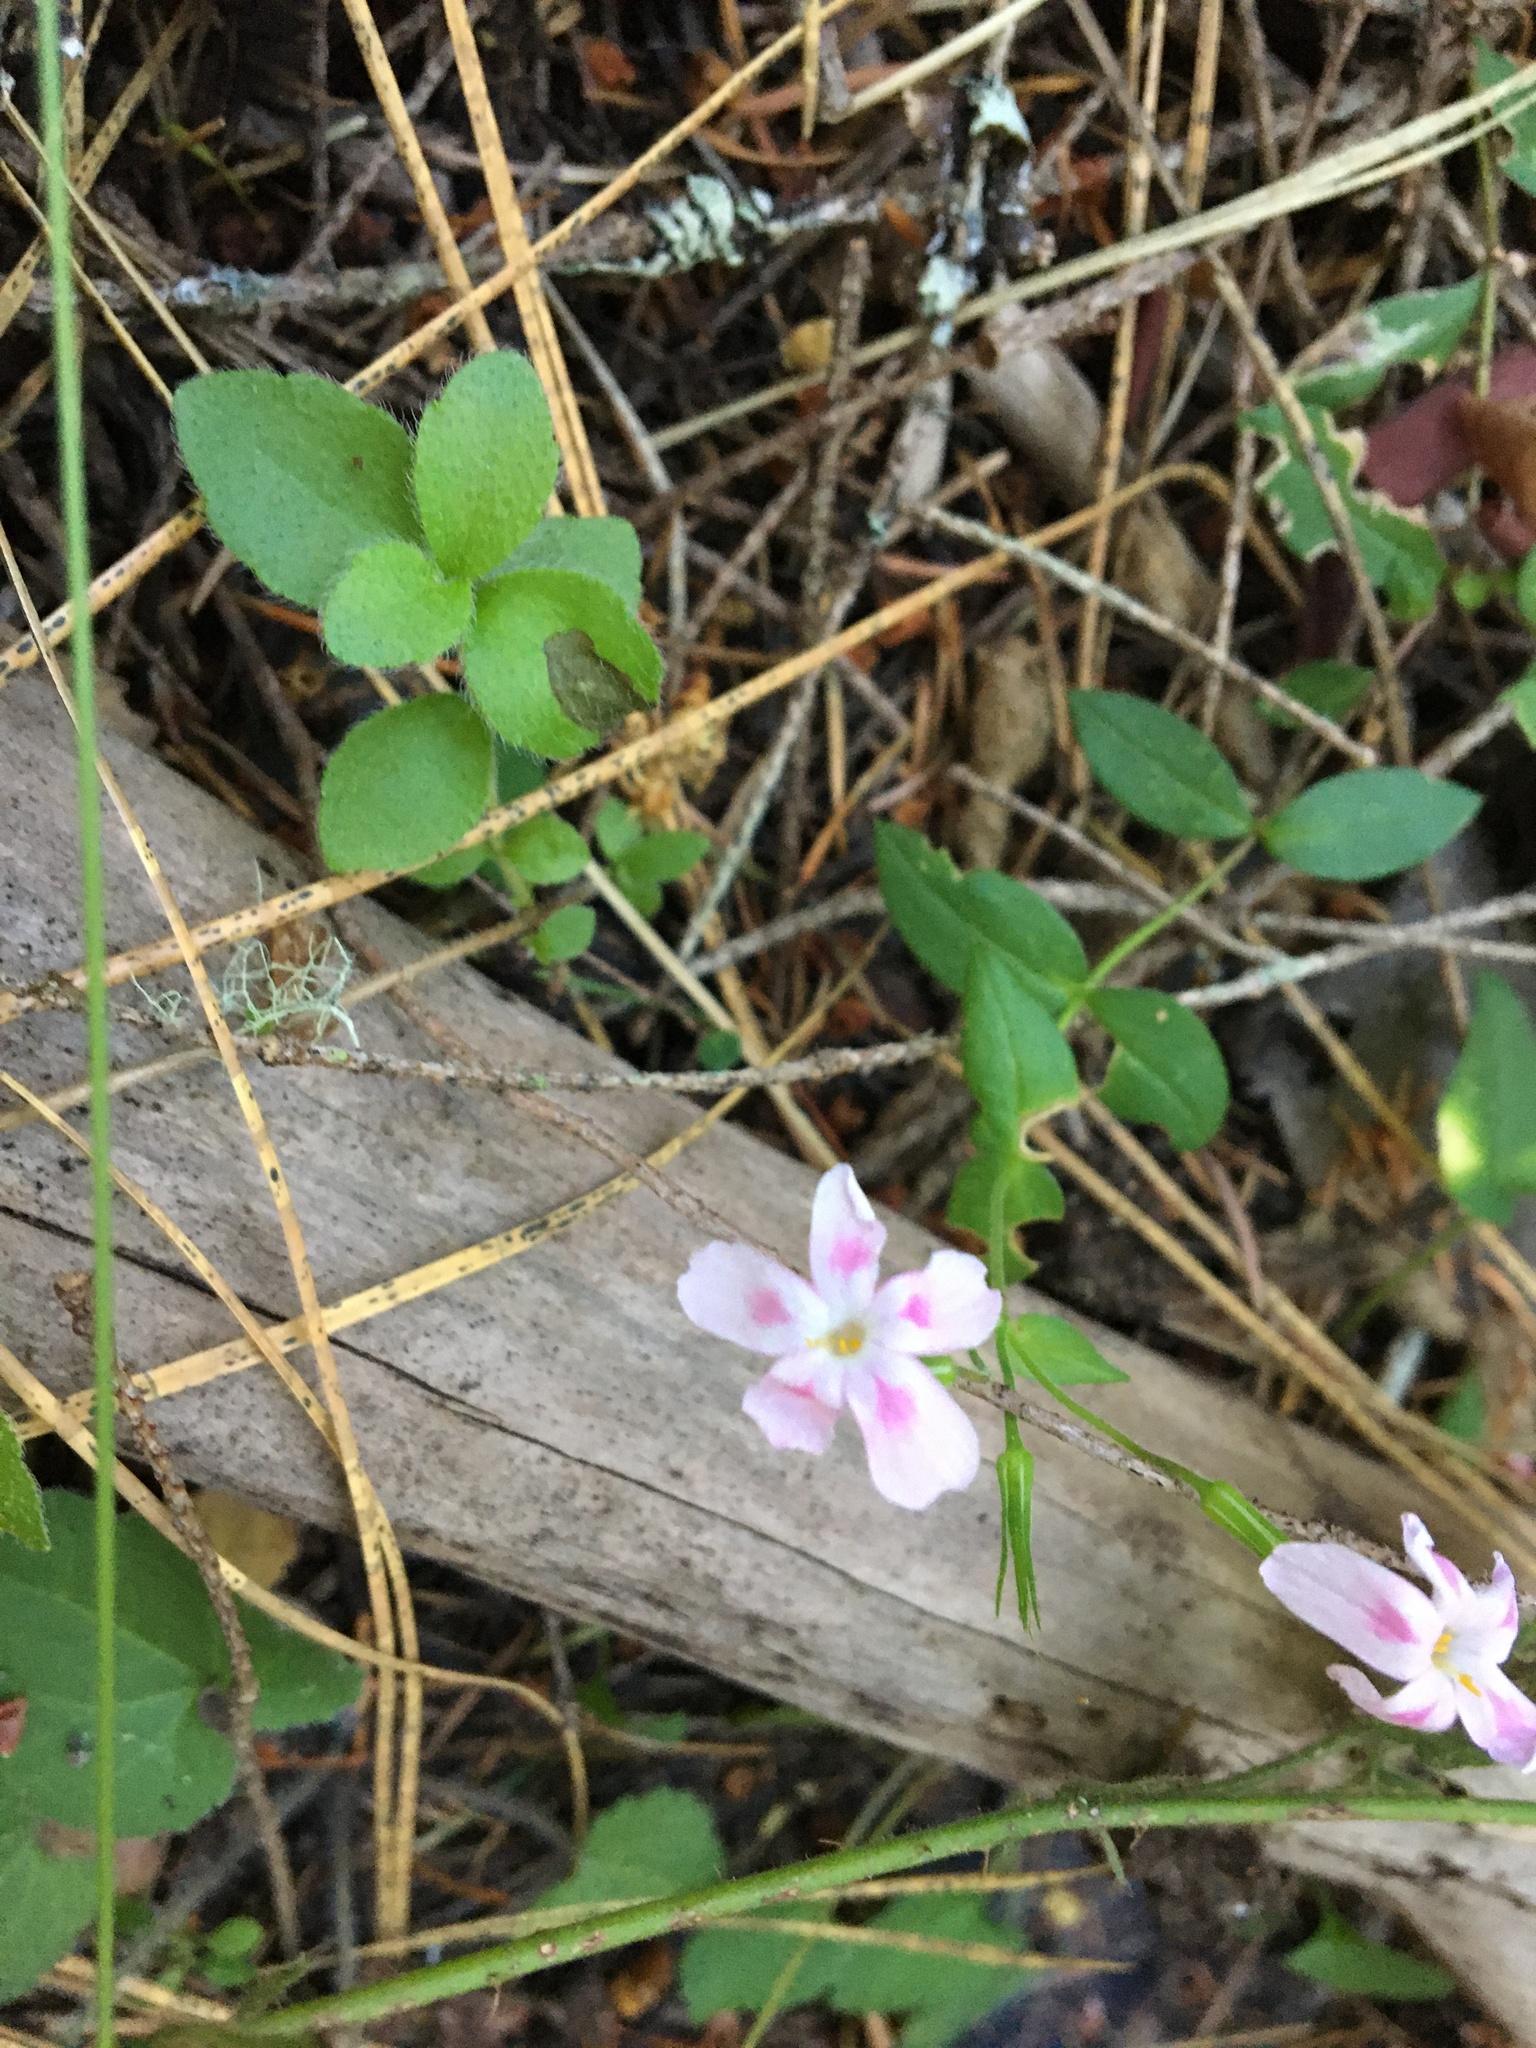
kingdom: Plantae
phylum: Tracheophyta
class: Magnoliopsida
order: Ericales
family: Polemoniaceae
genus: Phlox
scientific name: Phlox adsurgens
